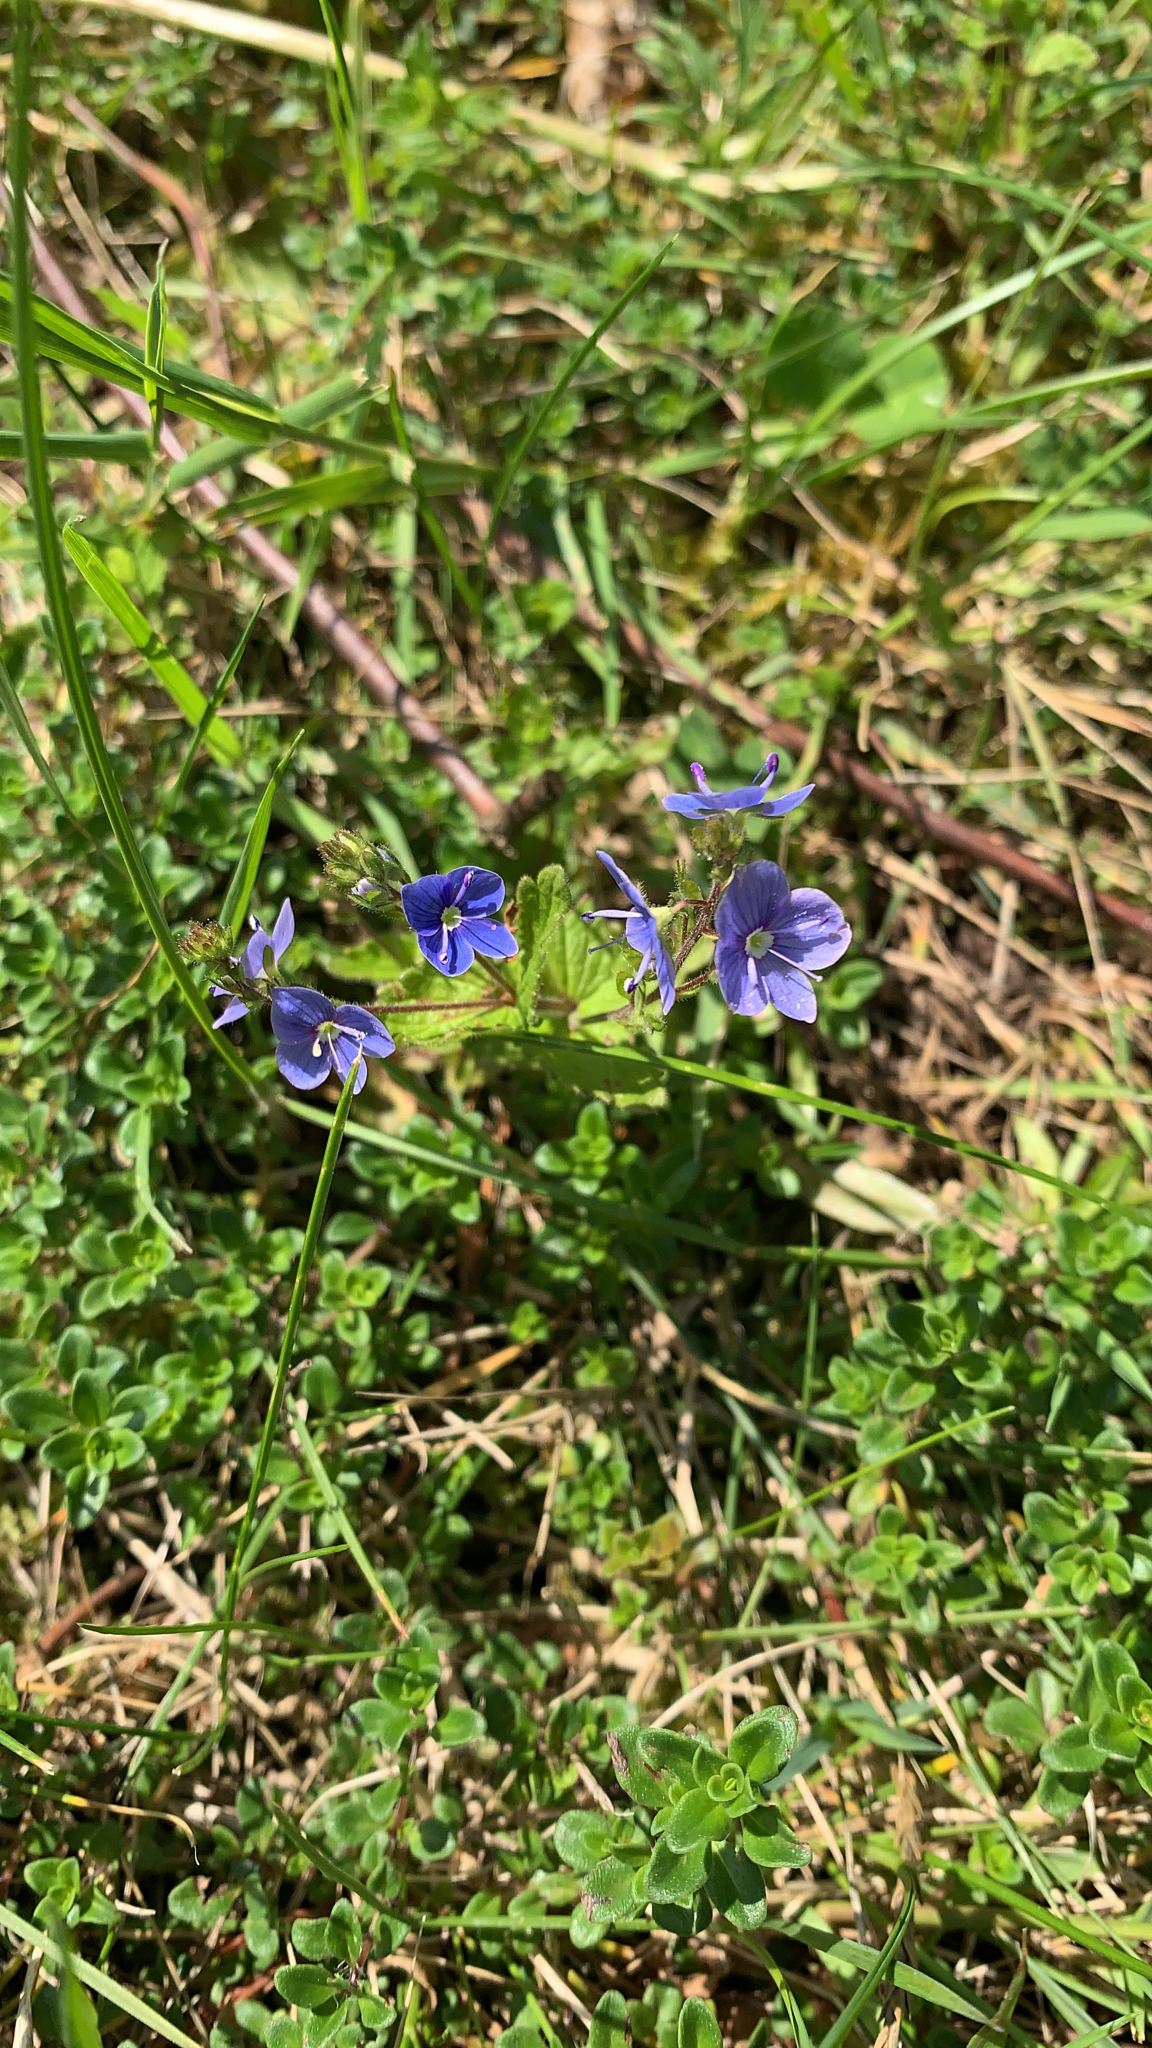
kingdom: Plantae
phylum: Tracheophyta
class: Magnoliopsida
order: Lamiales
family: Plantaginaceae
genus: Veronica
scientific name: Veronica chamaedrys
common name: Germander speedwell
